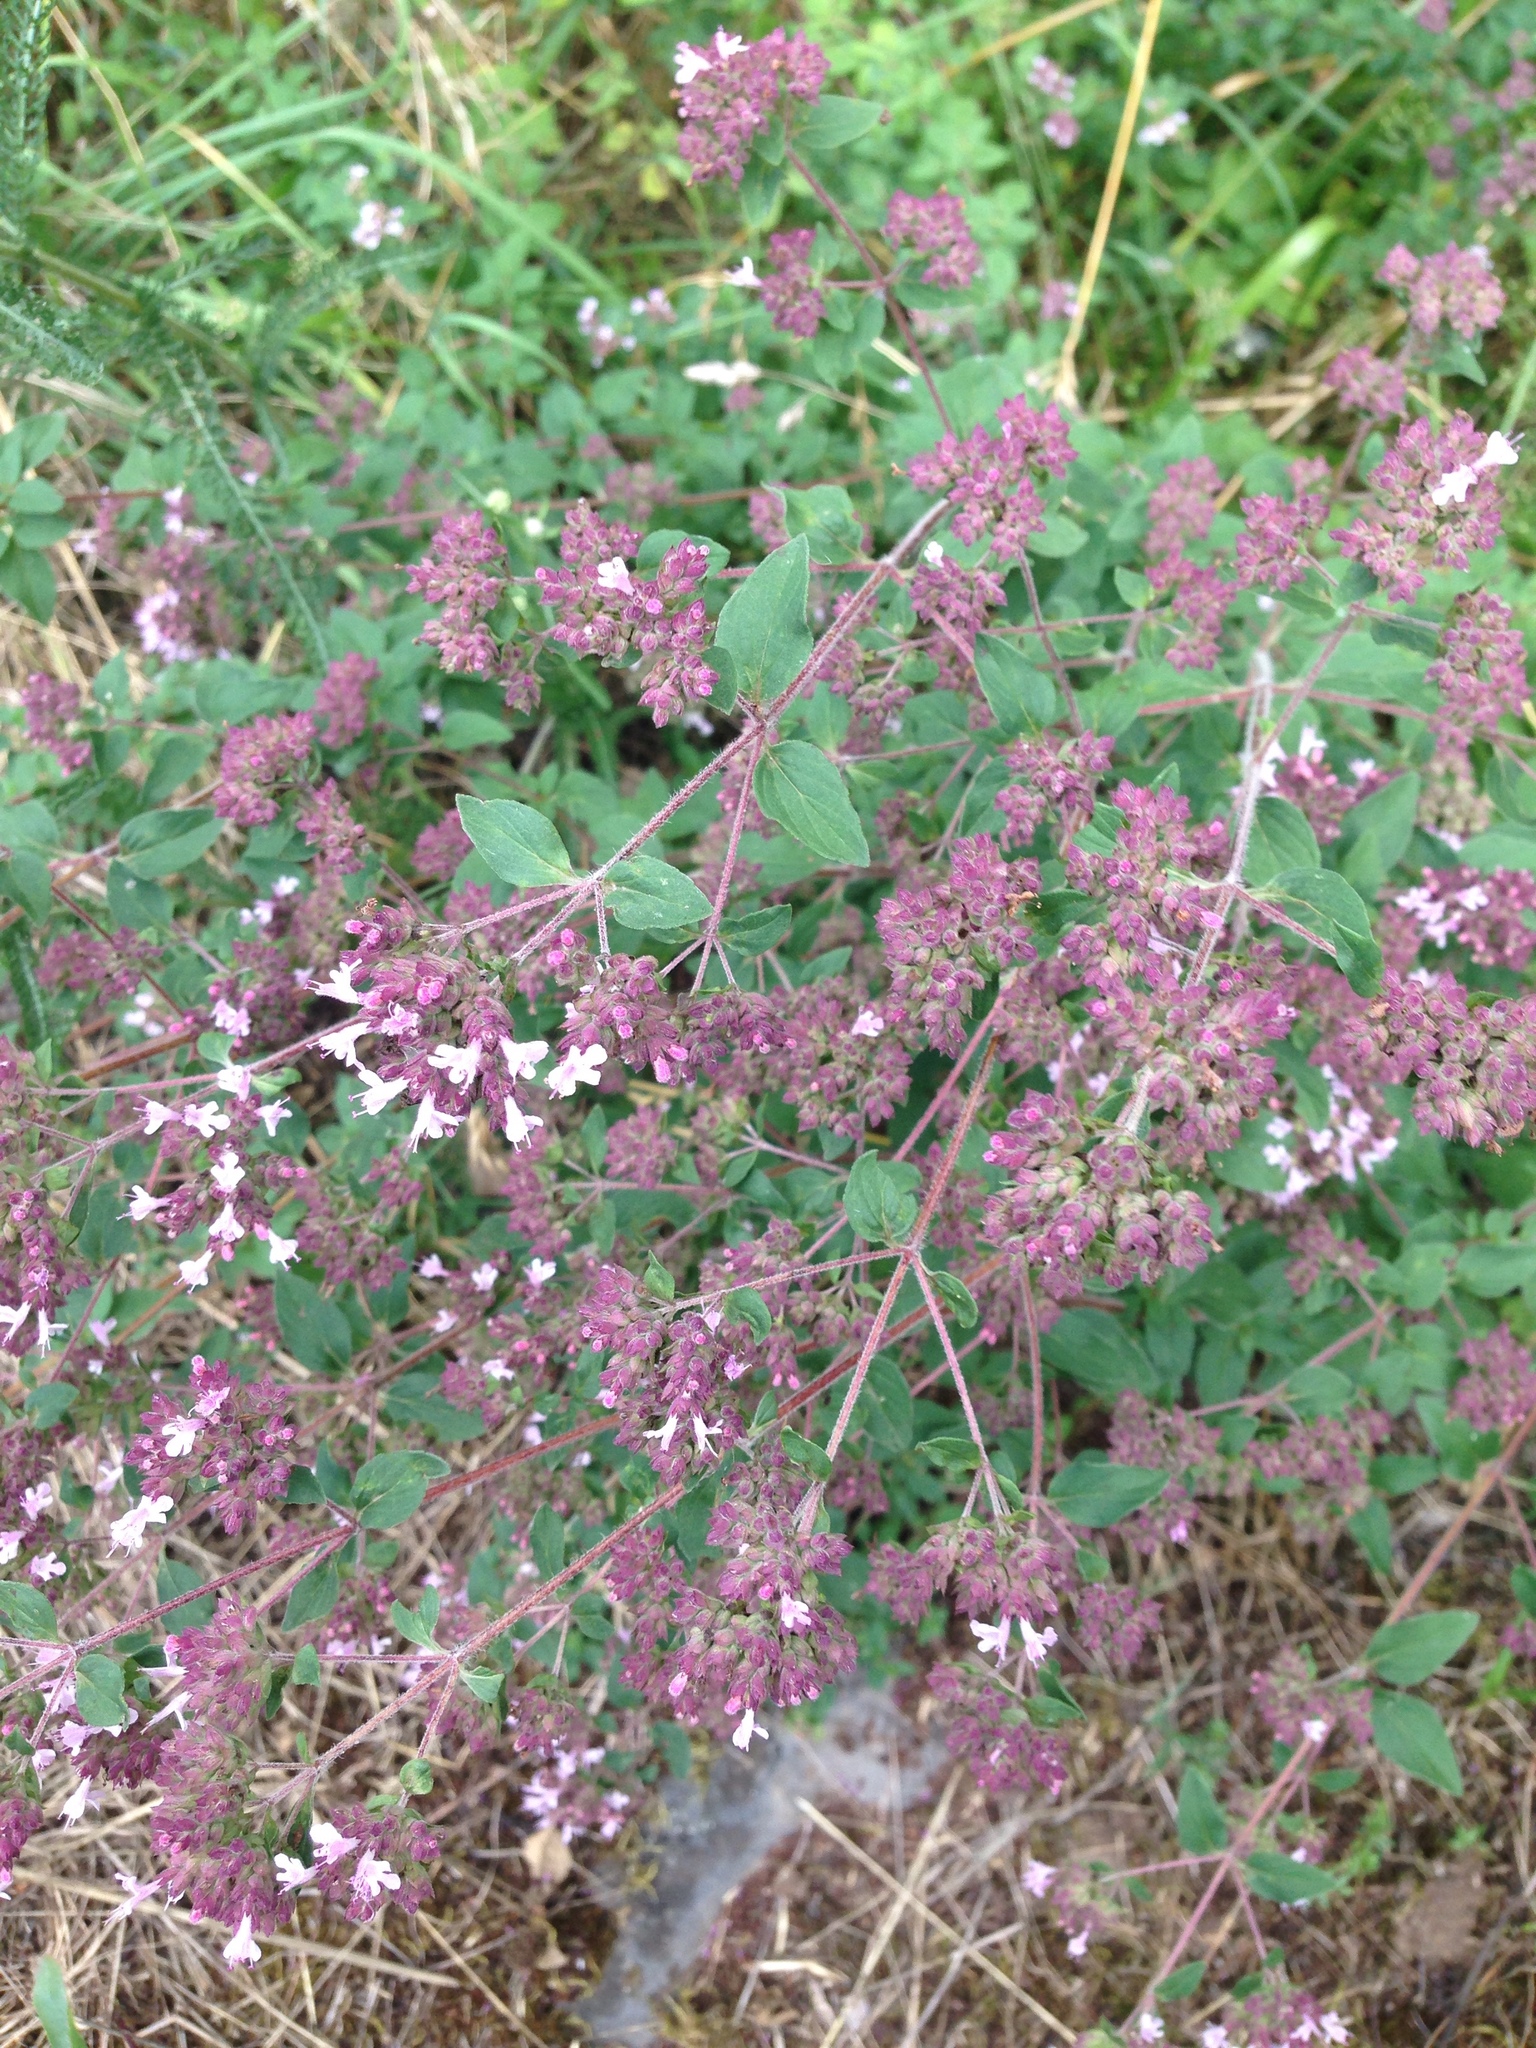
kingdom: Plantae
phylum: Tracheophyta
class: Magnoliopsida
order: Lamiales
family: Lamiaceae
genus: Origanum
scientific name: Origanum vulgare
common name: Wild marjoram
